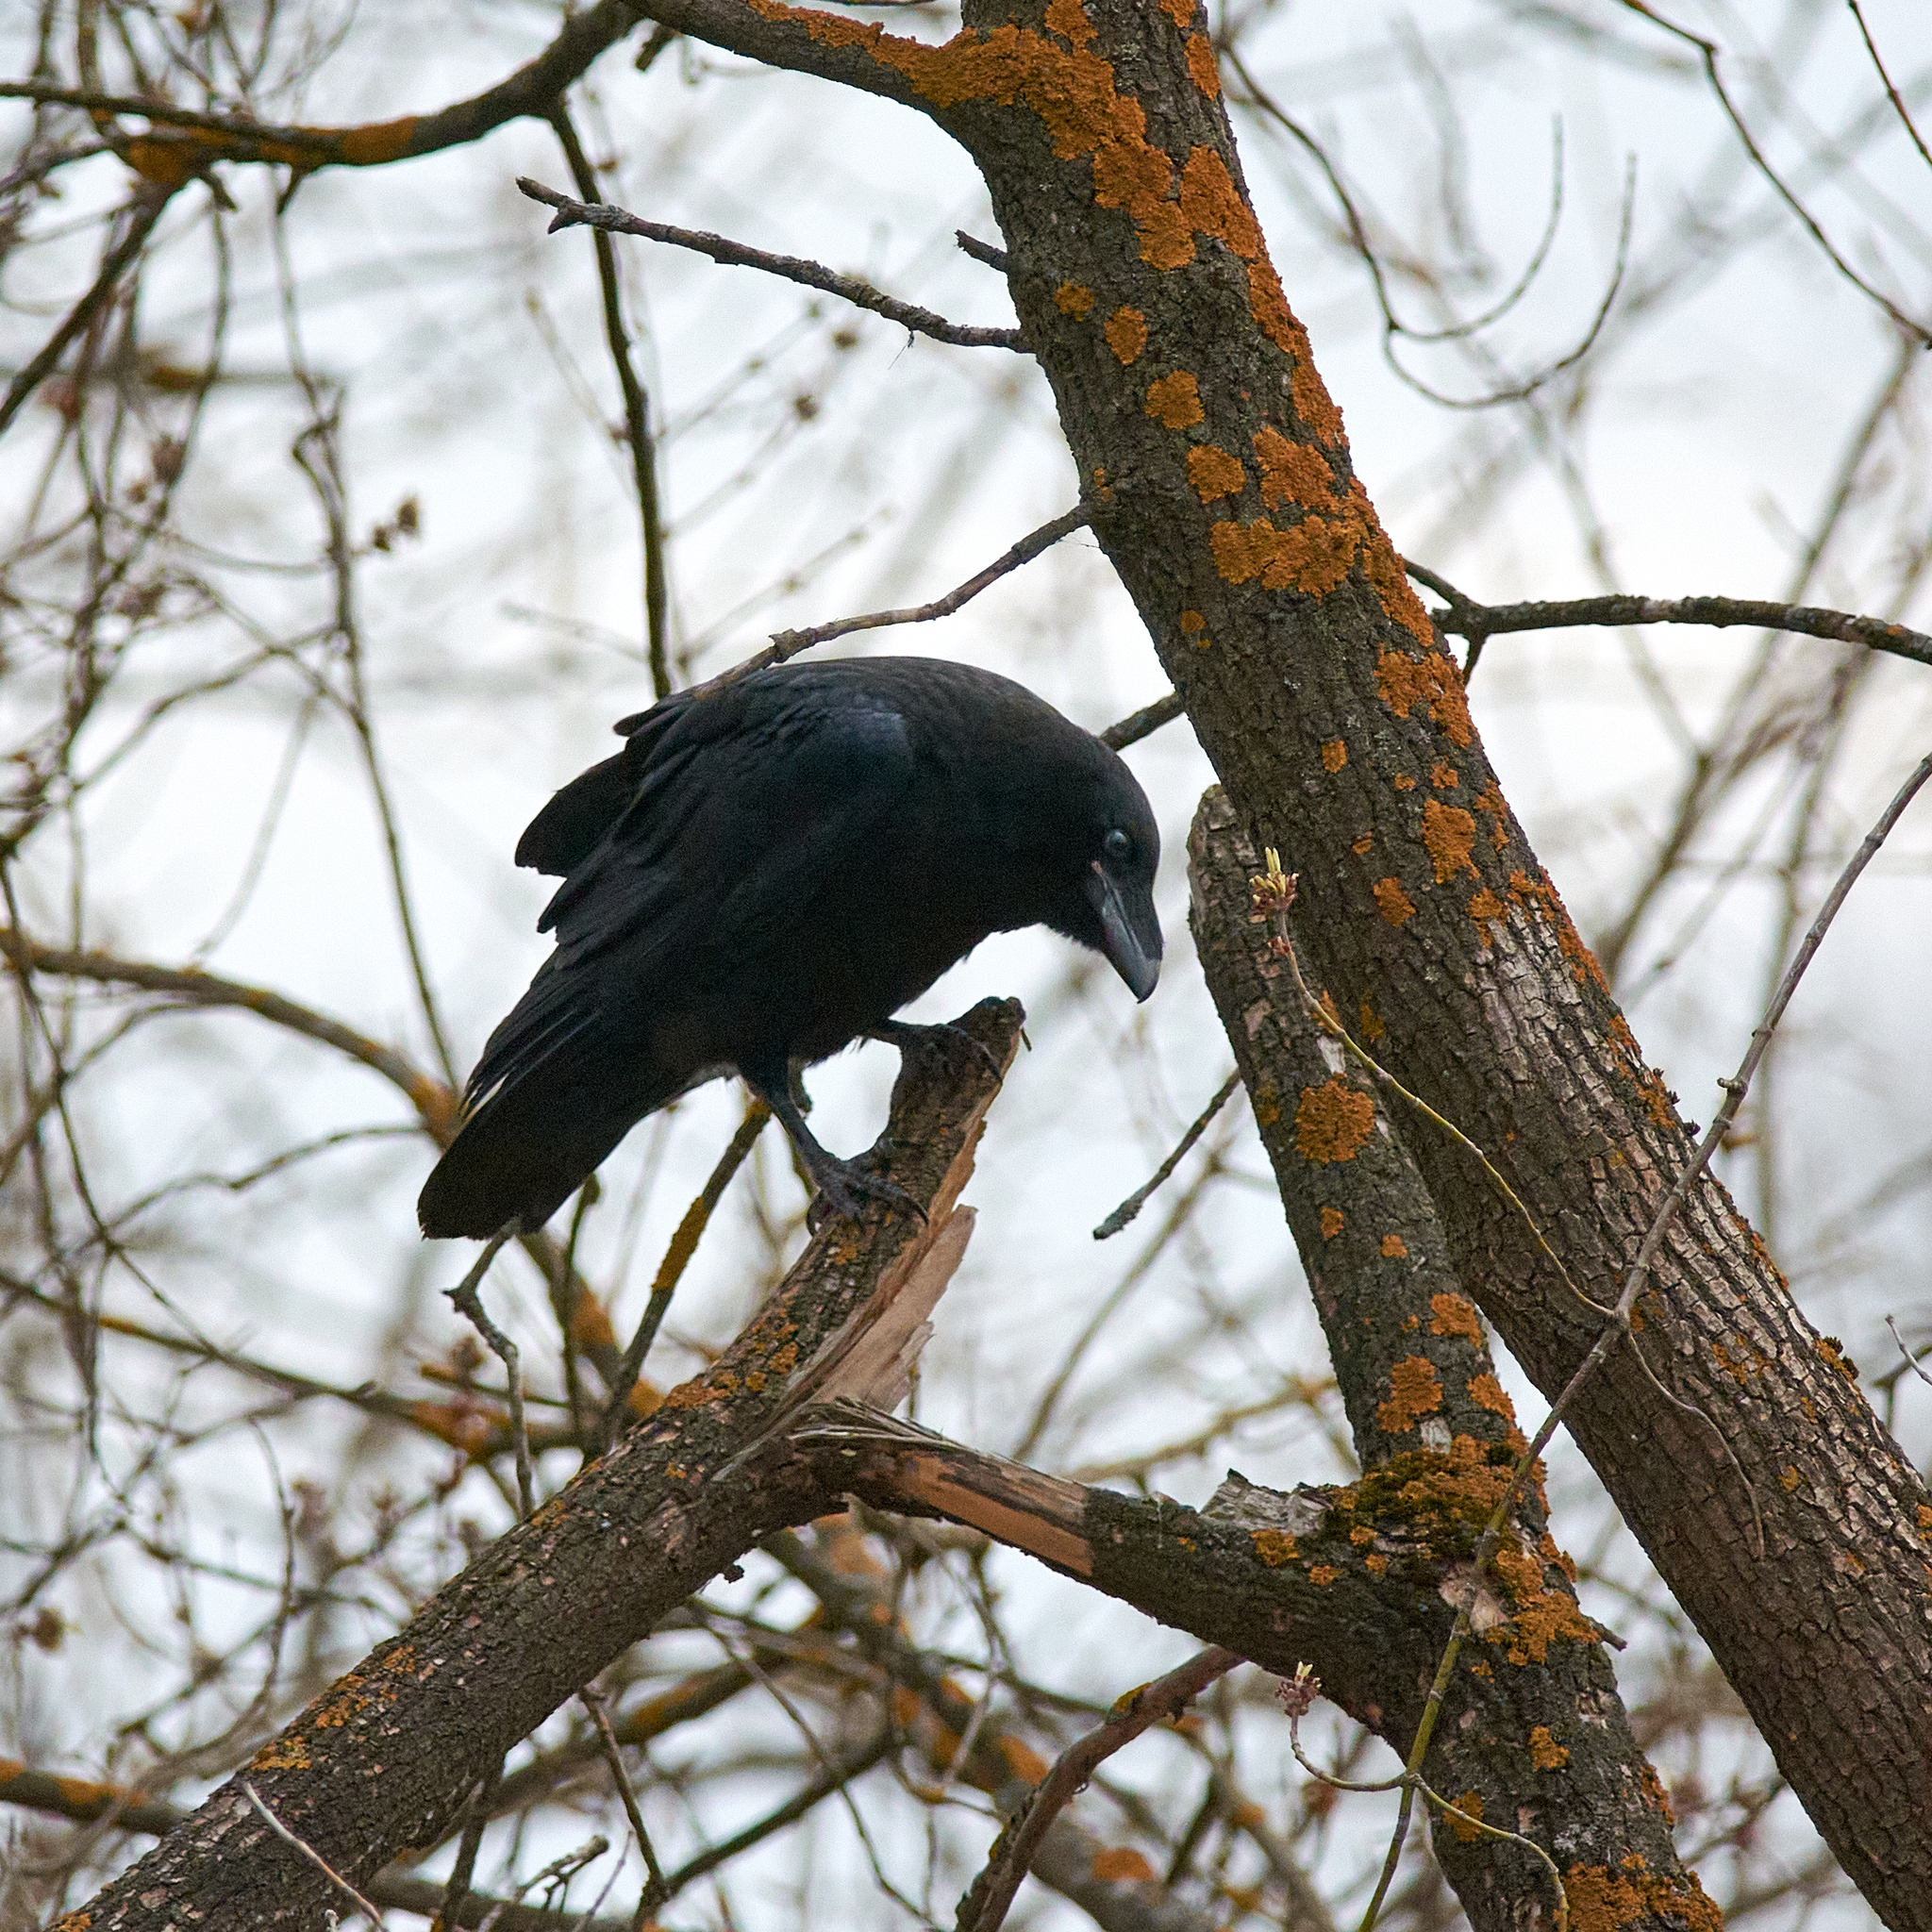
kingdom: Animalia
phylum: Chordata
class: Aves
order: Passeriformes
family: Corvidae
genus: Corvus
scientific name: Corvus corax
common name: Common raven
